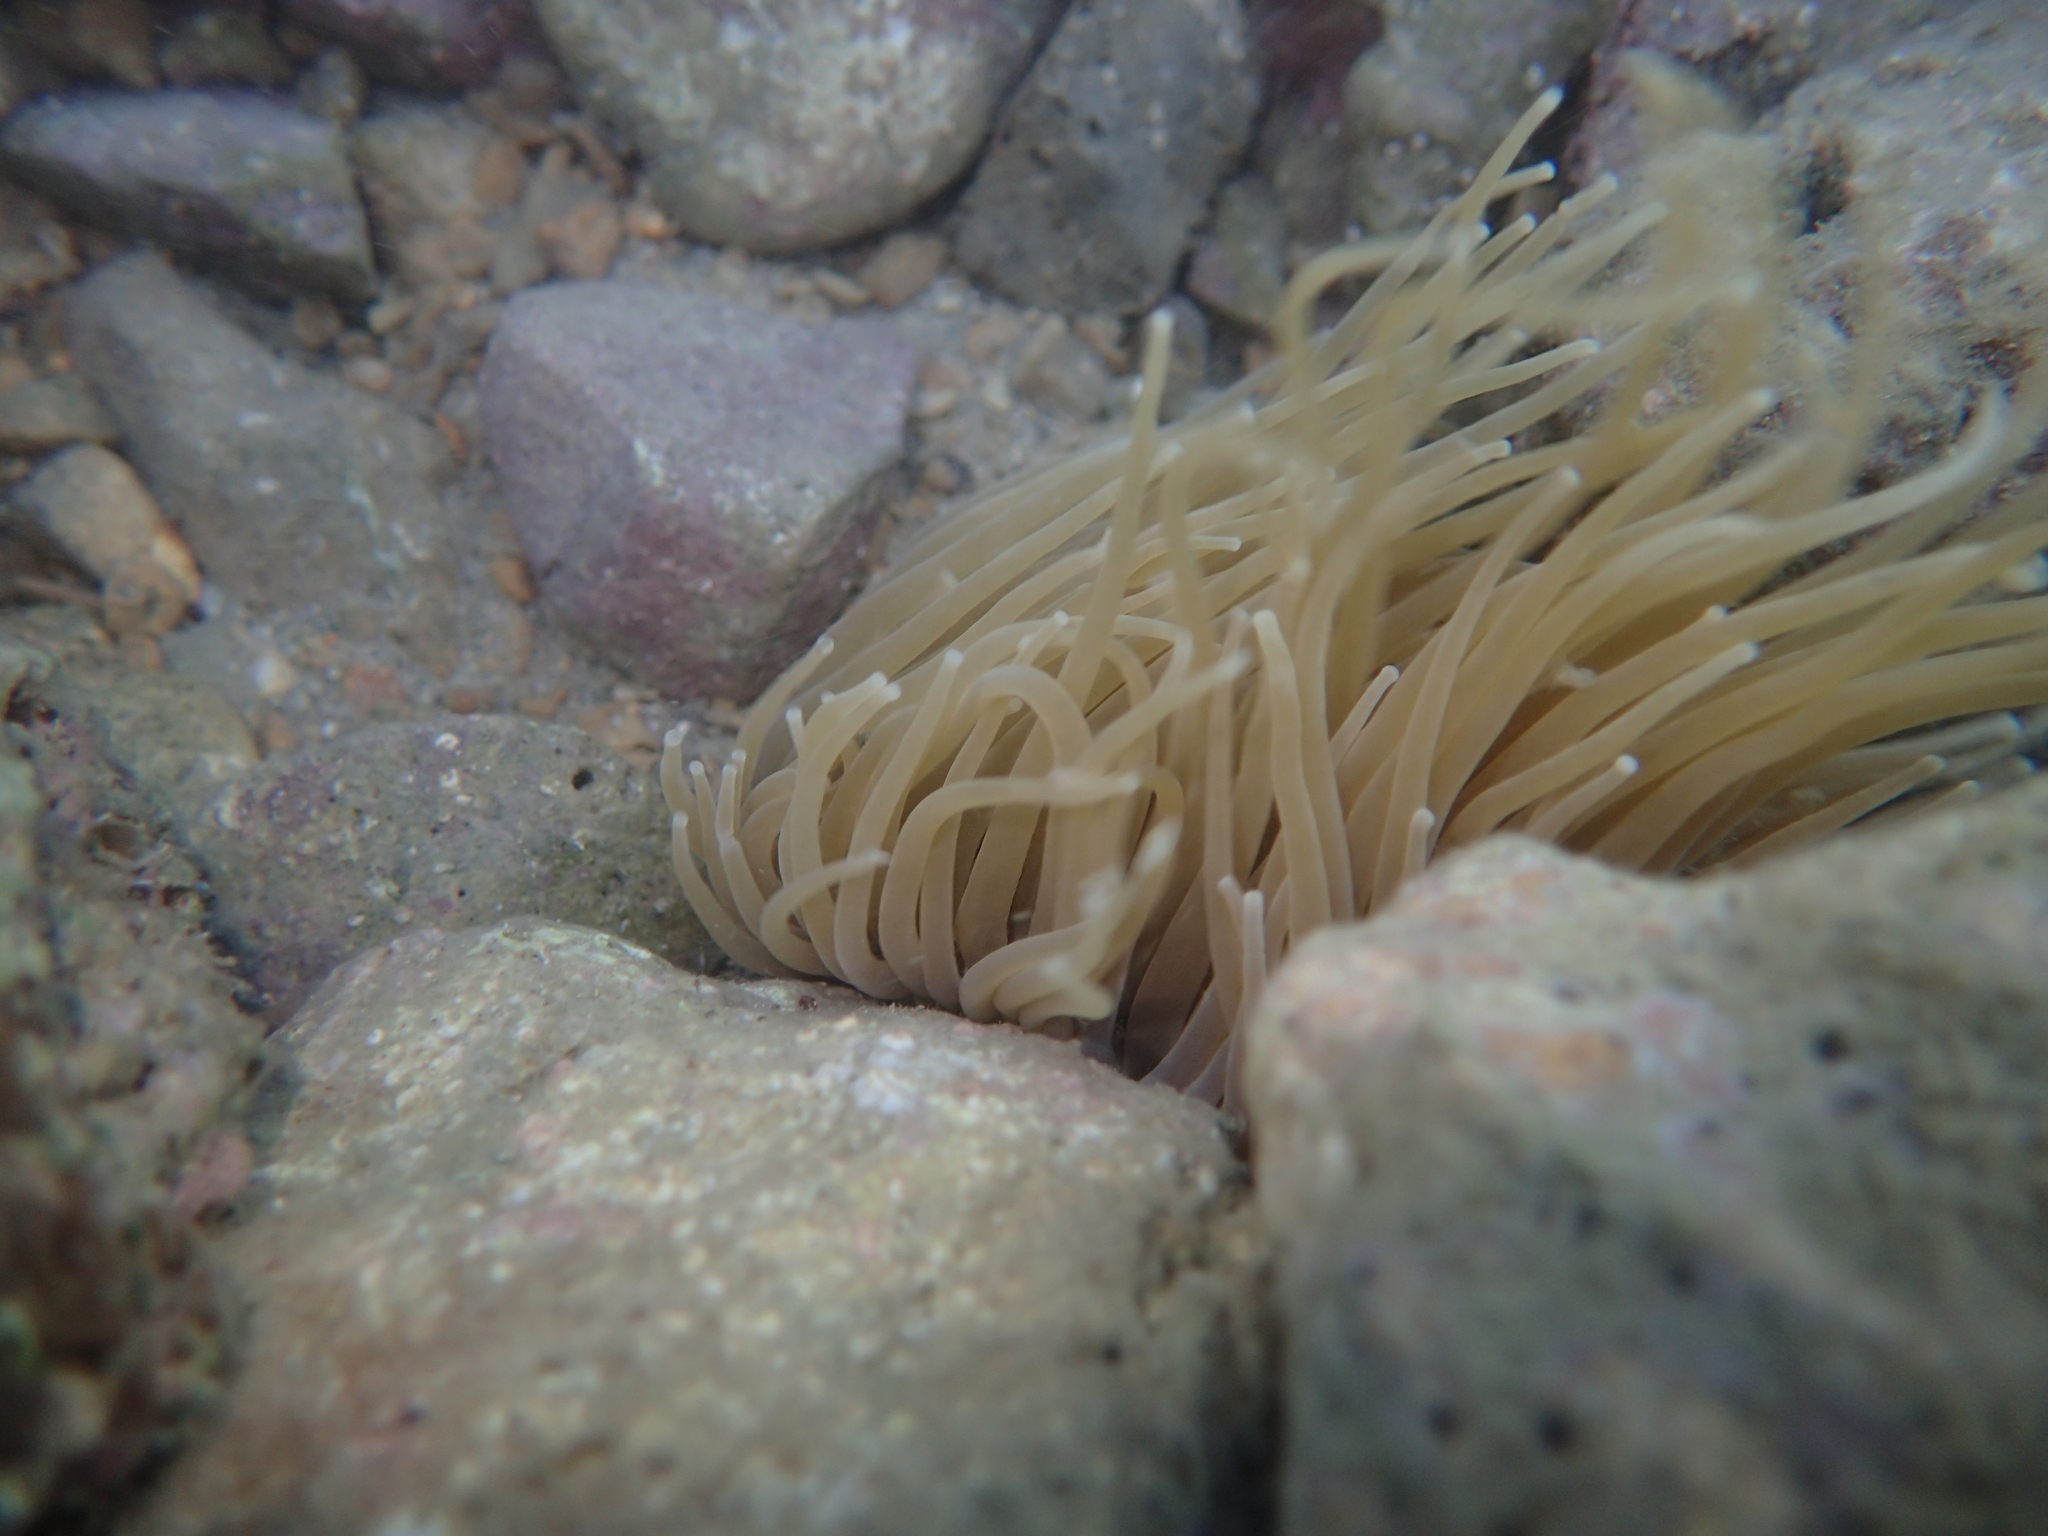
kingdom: Animalia
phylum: Cnidaria
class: Anthozoa
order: Actiniaria
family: Actiniidae
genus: Anemonia
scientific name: Anemonia viridis
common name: Snakelocks anemone
